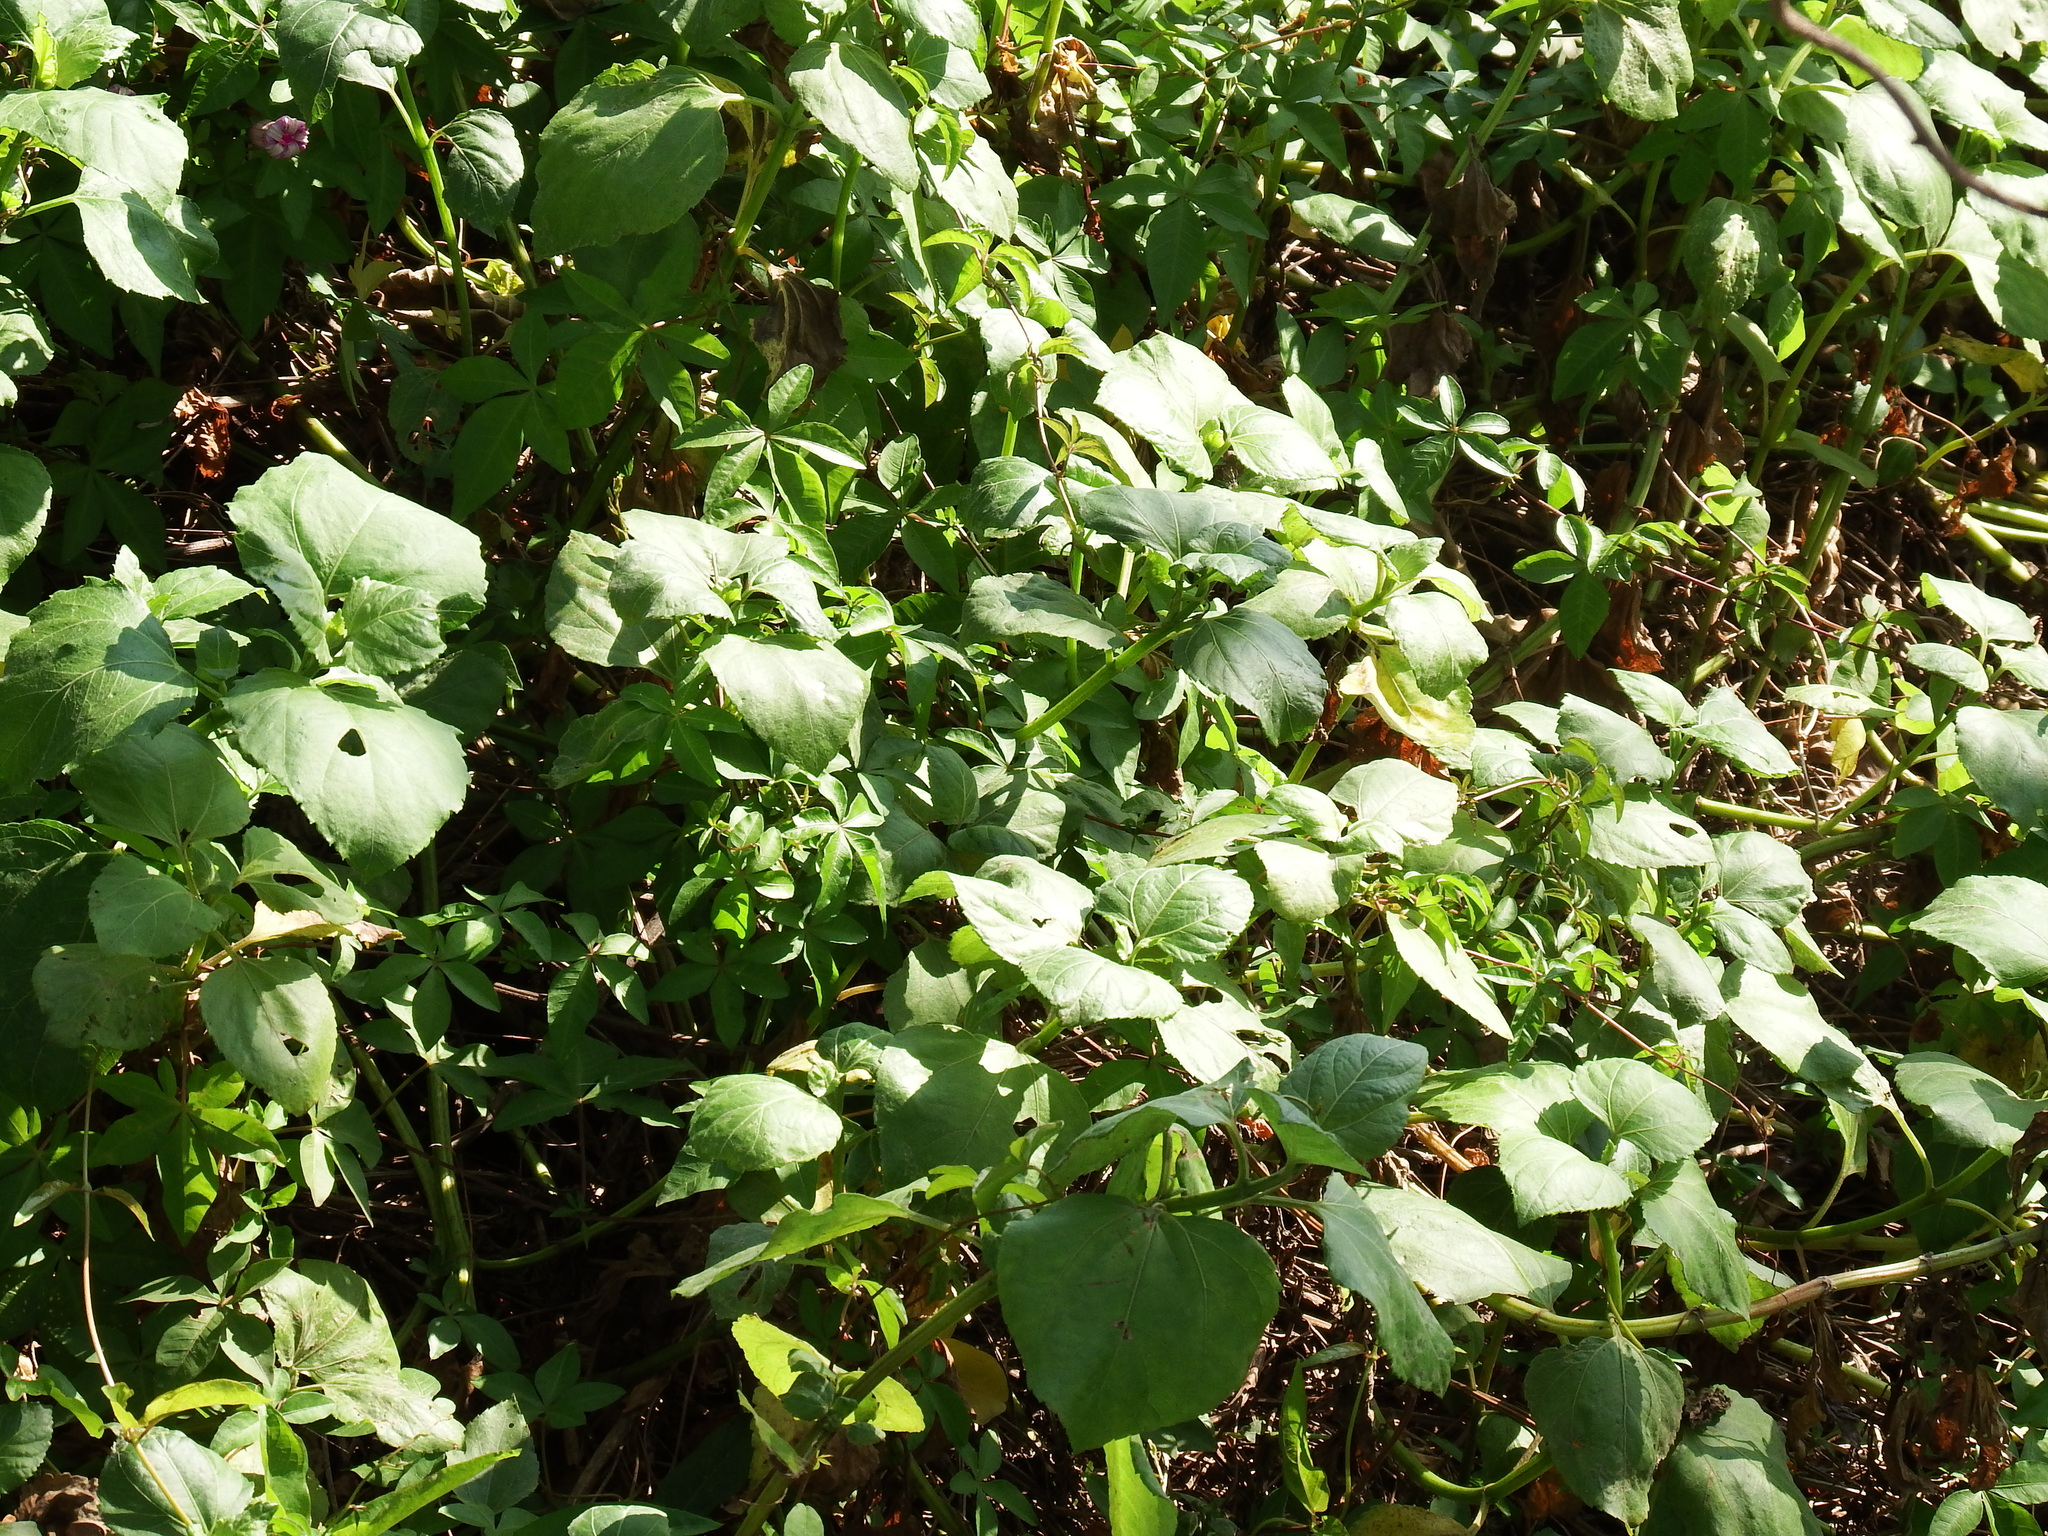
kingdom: Plantae
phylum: Tracheophyta
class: Magnoliopsida
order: Asterales
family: Asteraceae
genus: Wollastonia
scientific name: Wollastonia biflora
